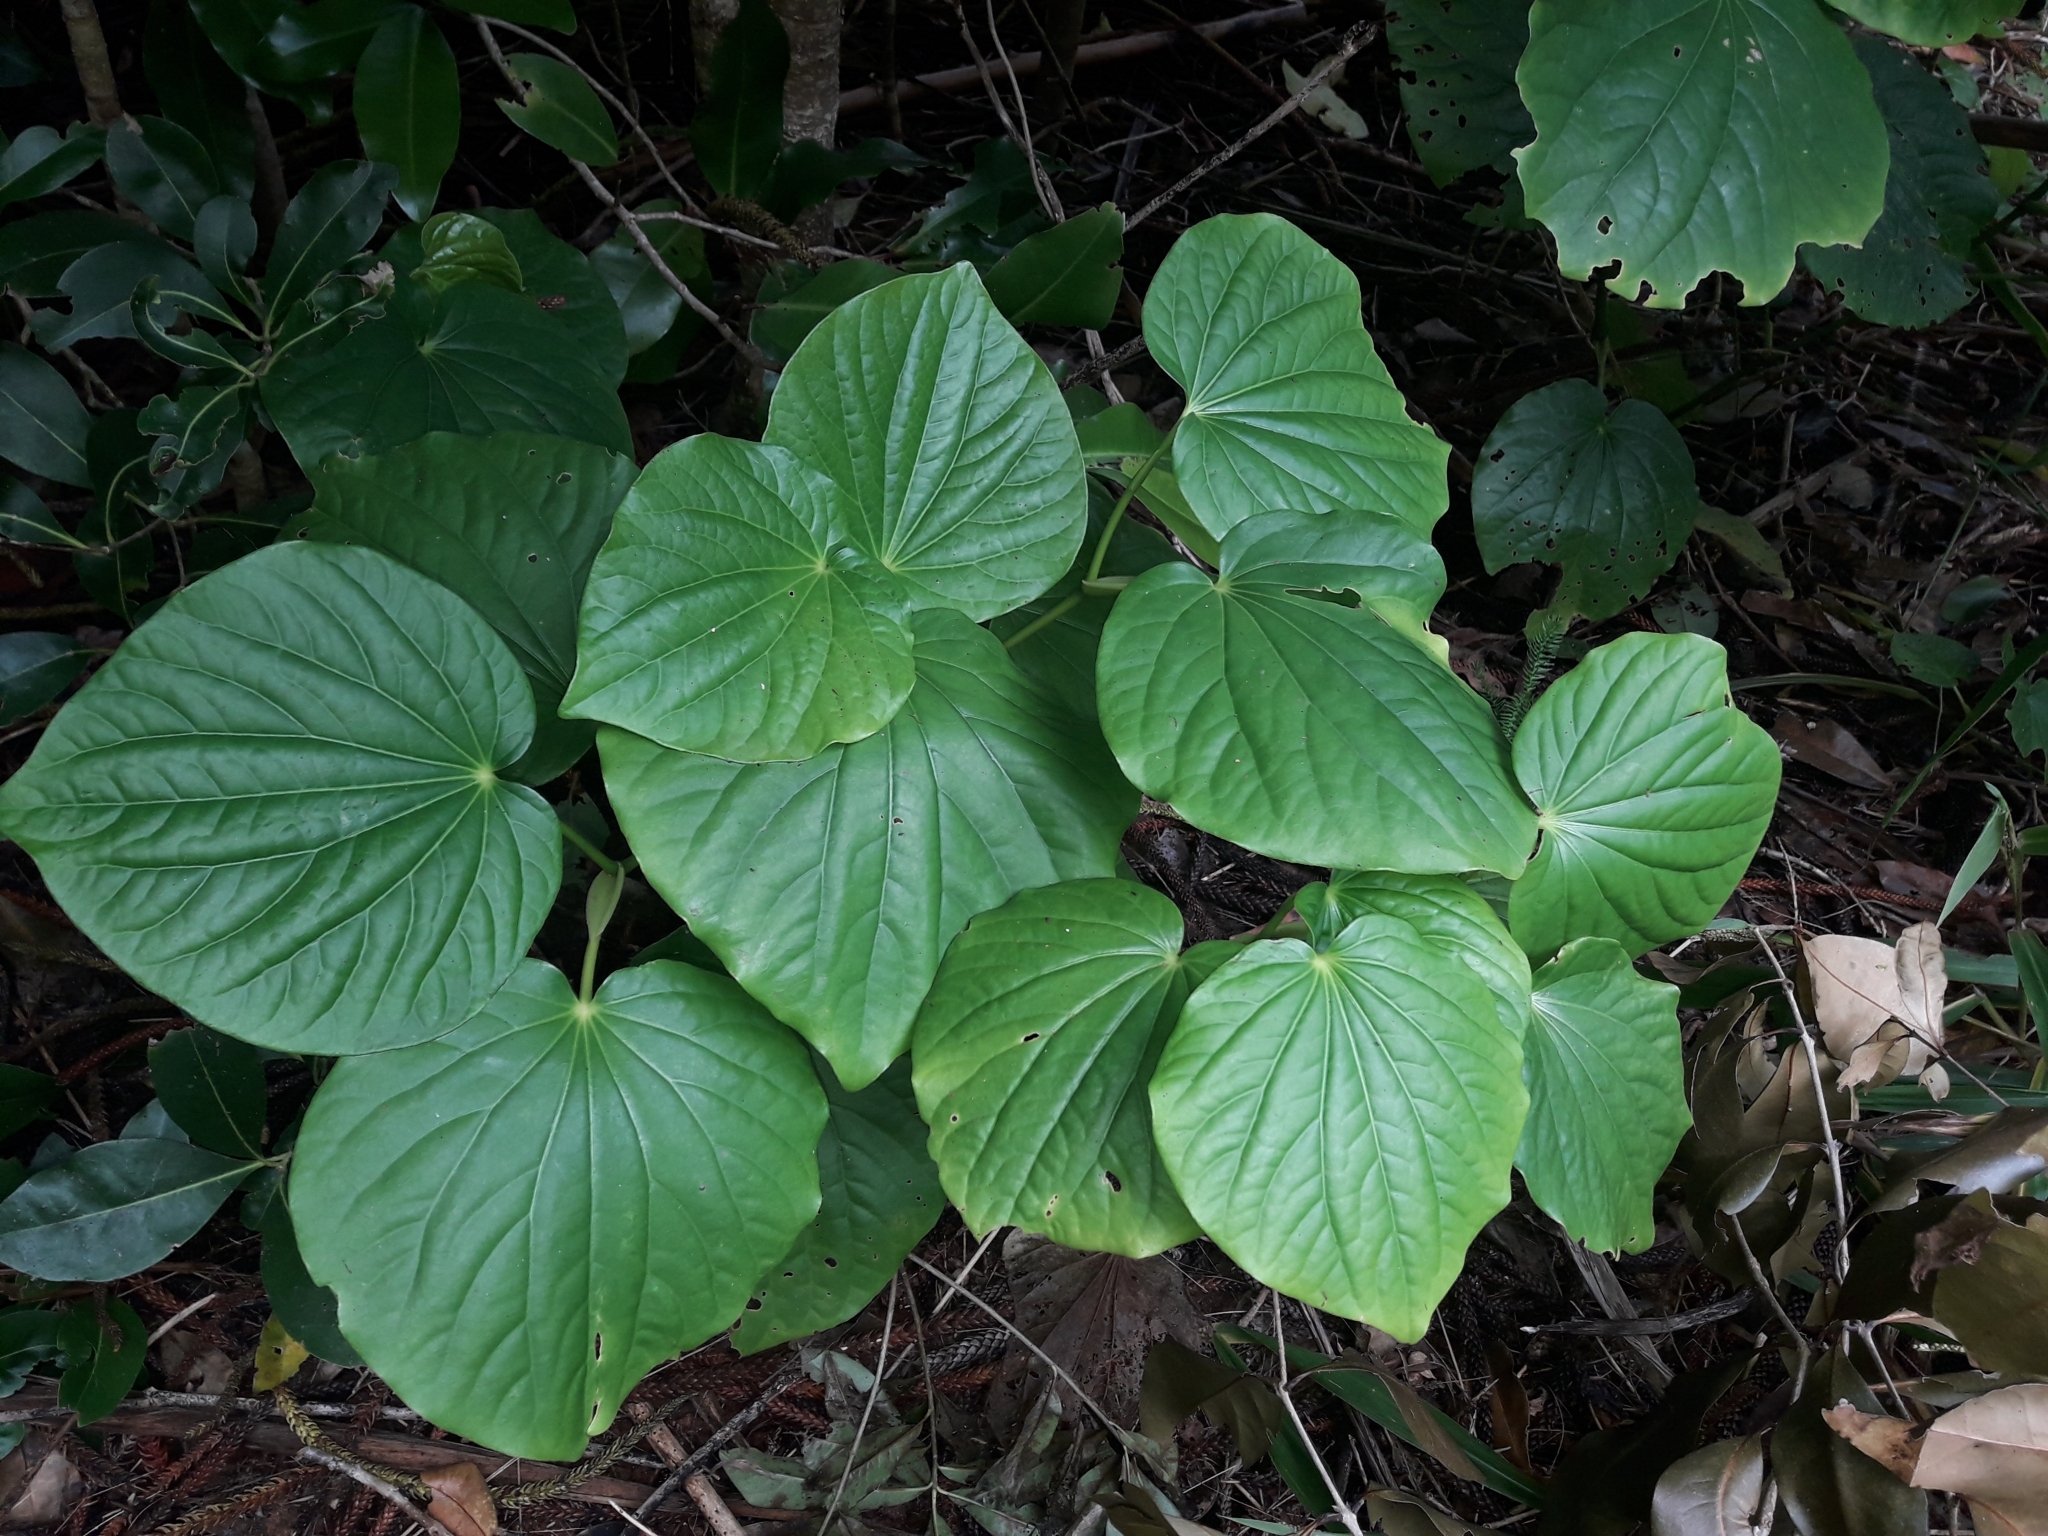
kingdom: Plantae
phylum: Tracheophyta
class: Magnoliopsida
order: Piperales
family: Piperaceae
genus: Macropiper
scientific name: Macropiper excelsum
